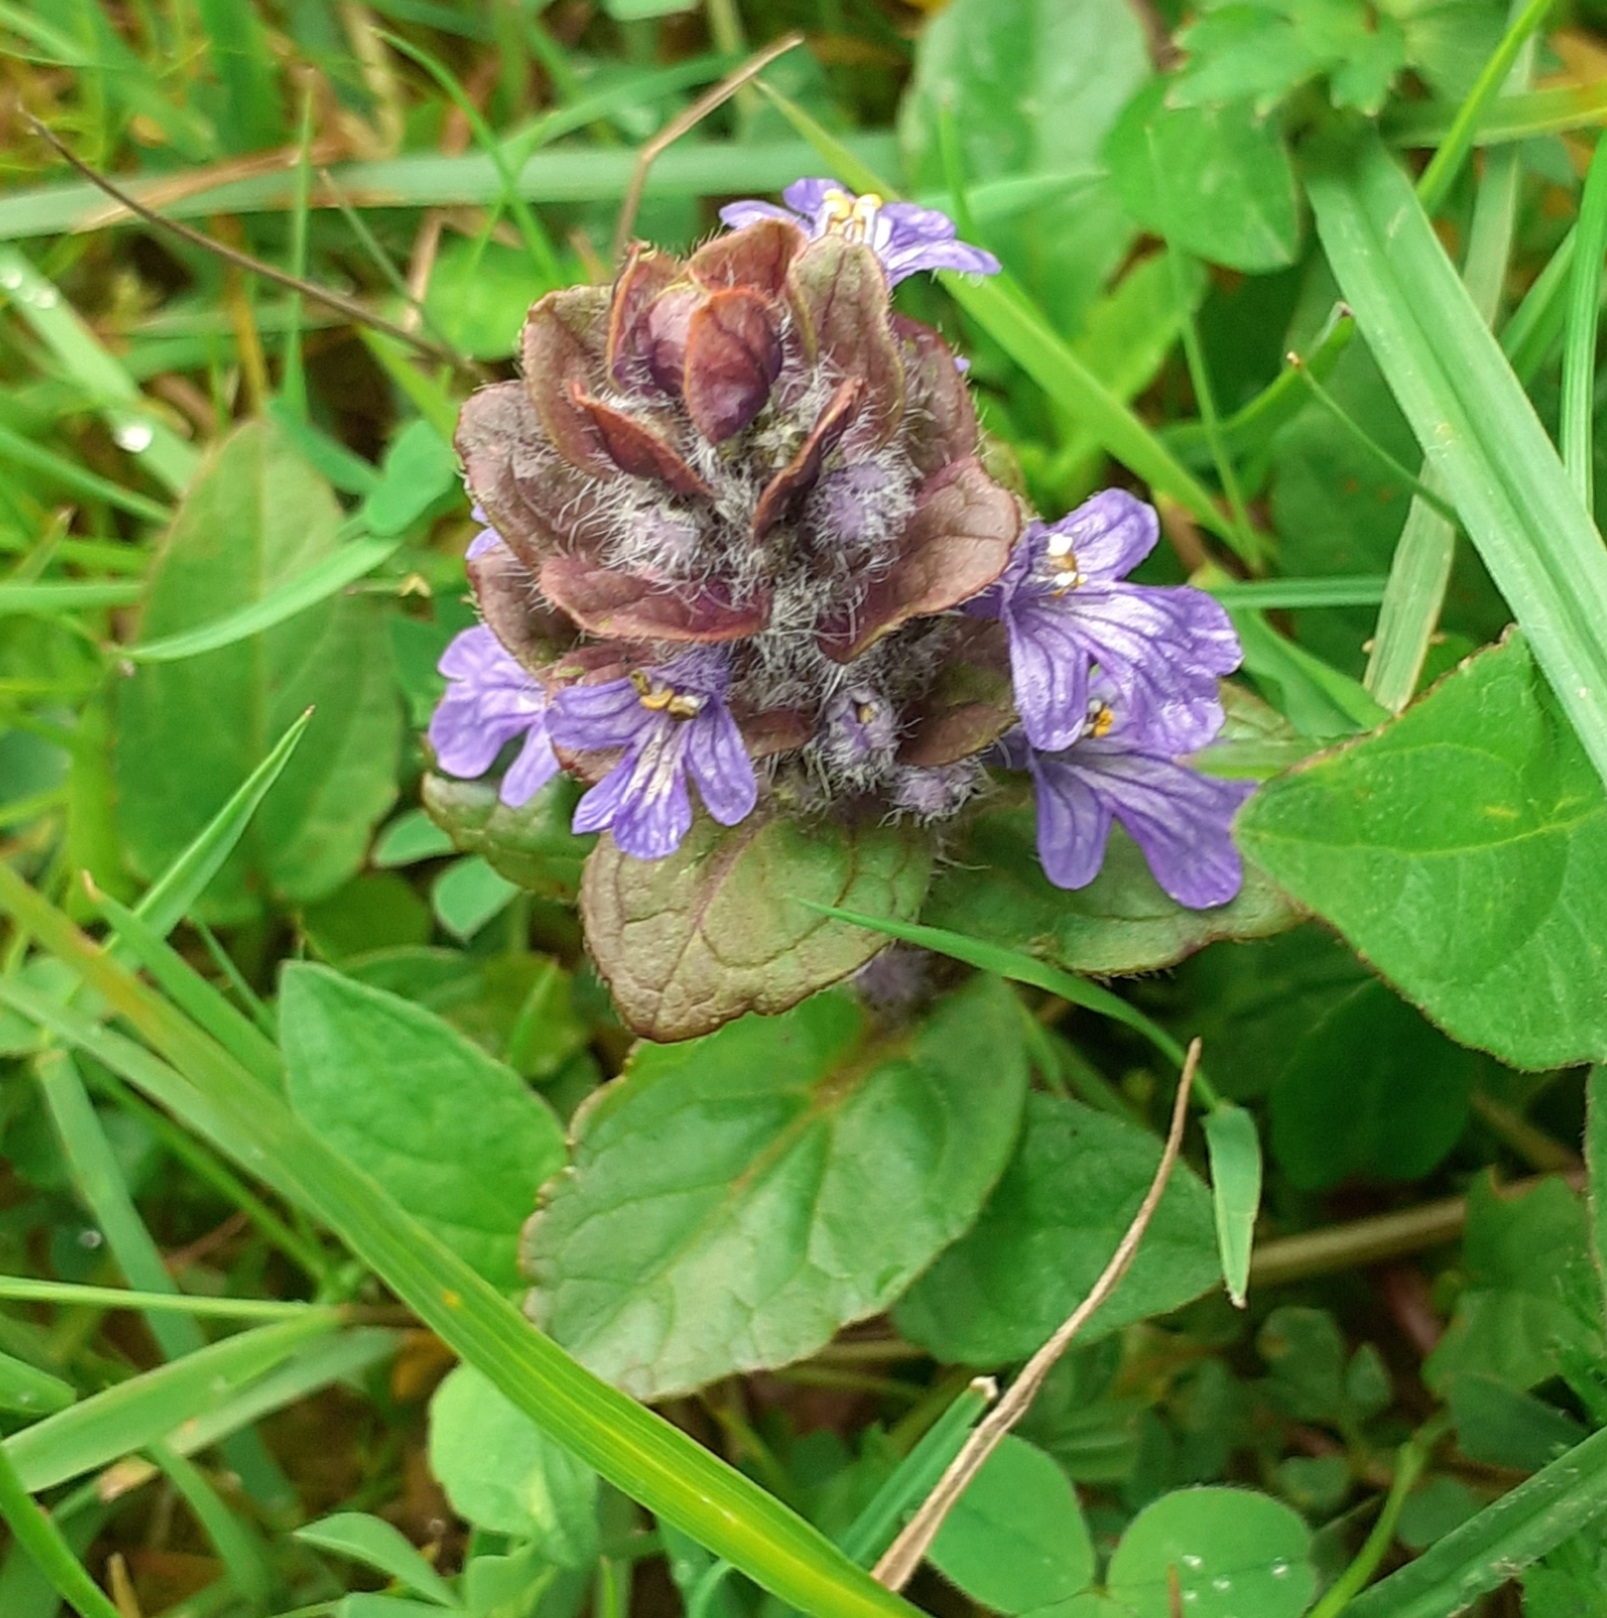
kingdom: Plantae
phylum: Tracheophyta
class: Magnoliopsida
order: Lamiales
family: Lamiaceae
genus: Ajuga
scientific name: Ajuga reptans
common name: Bugle
